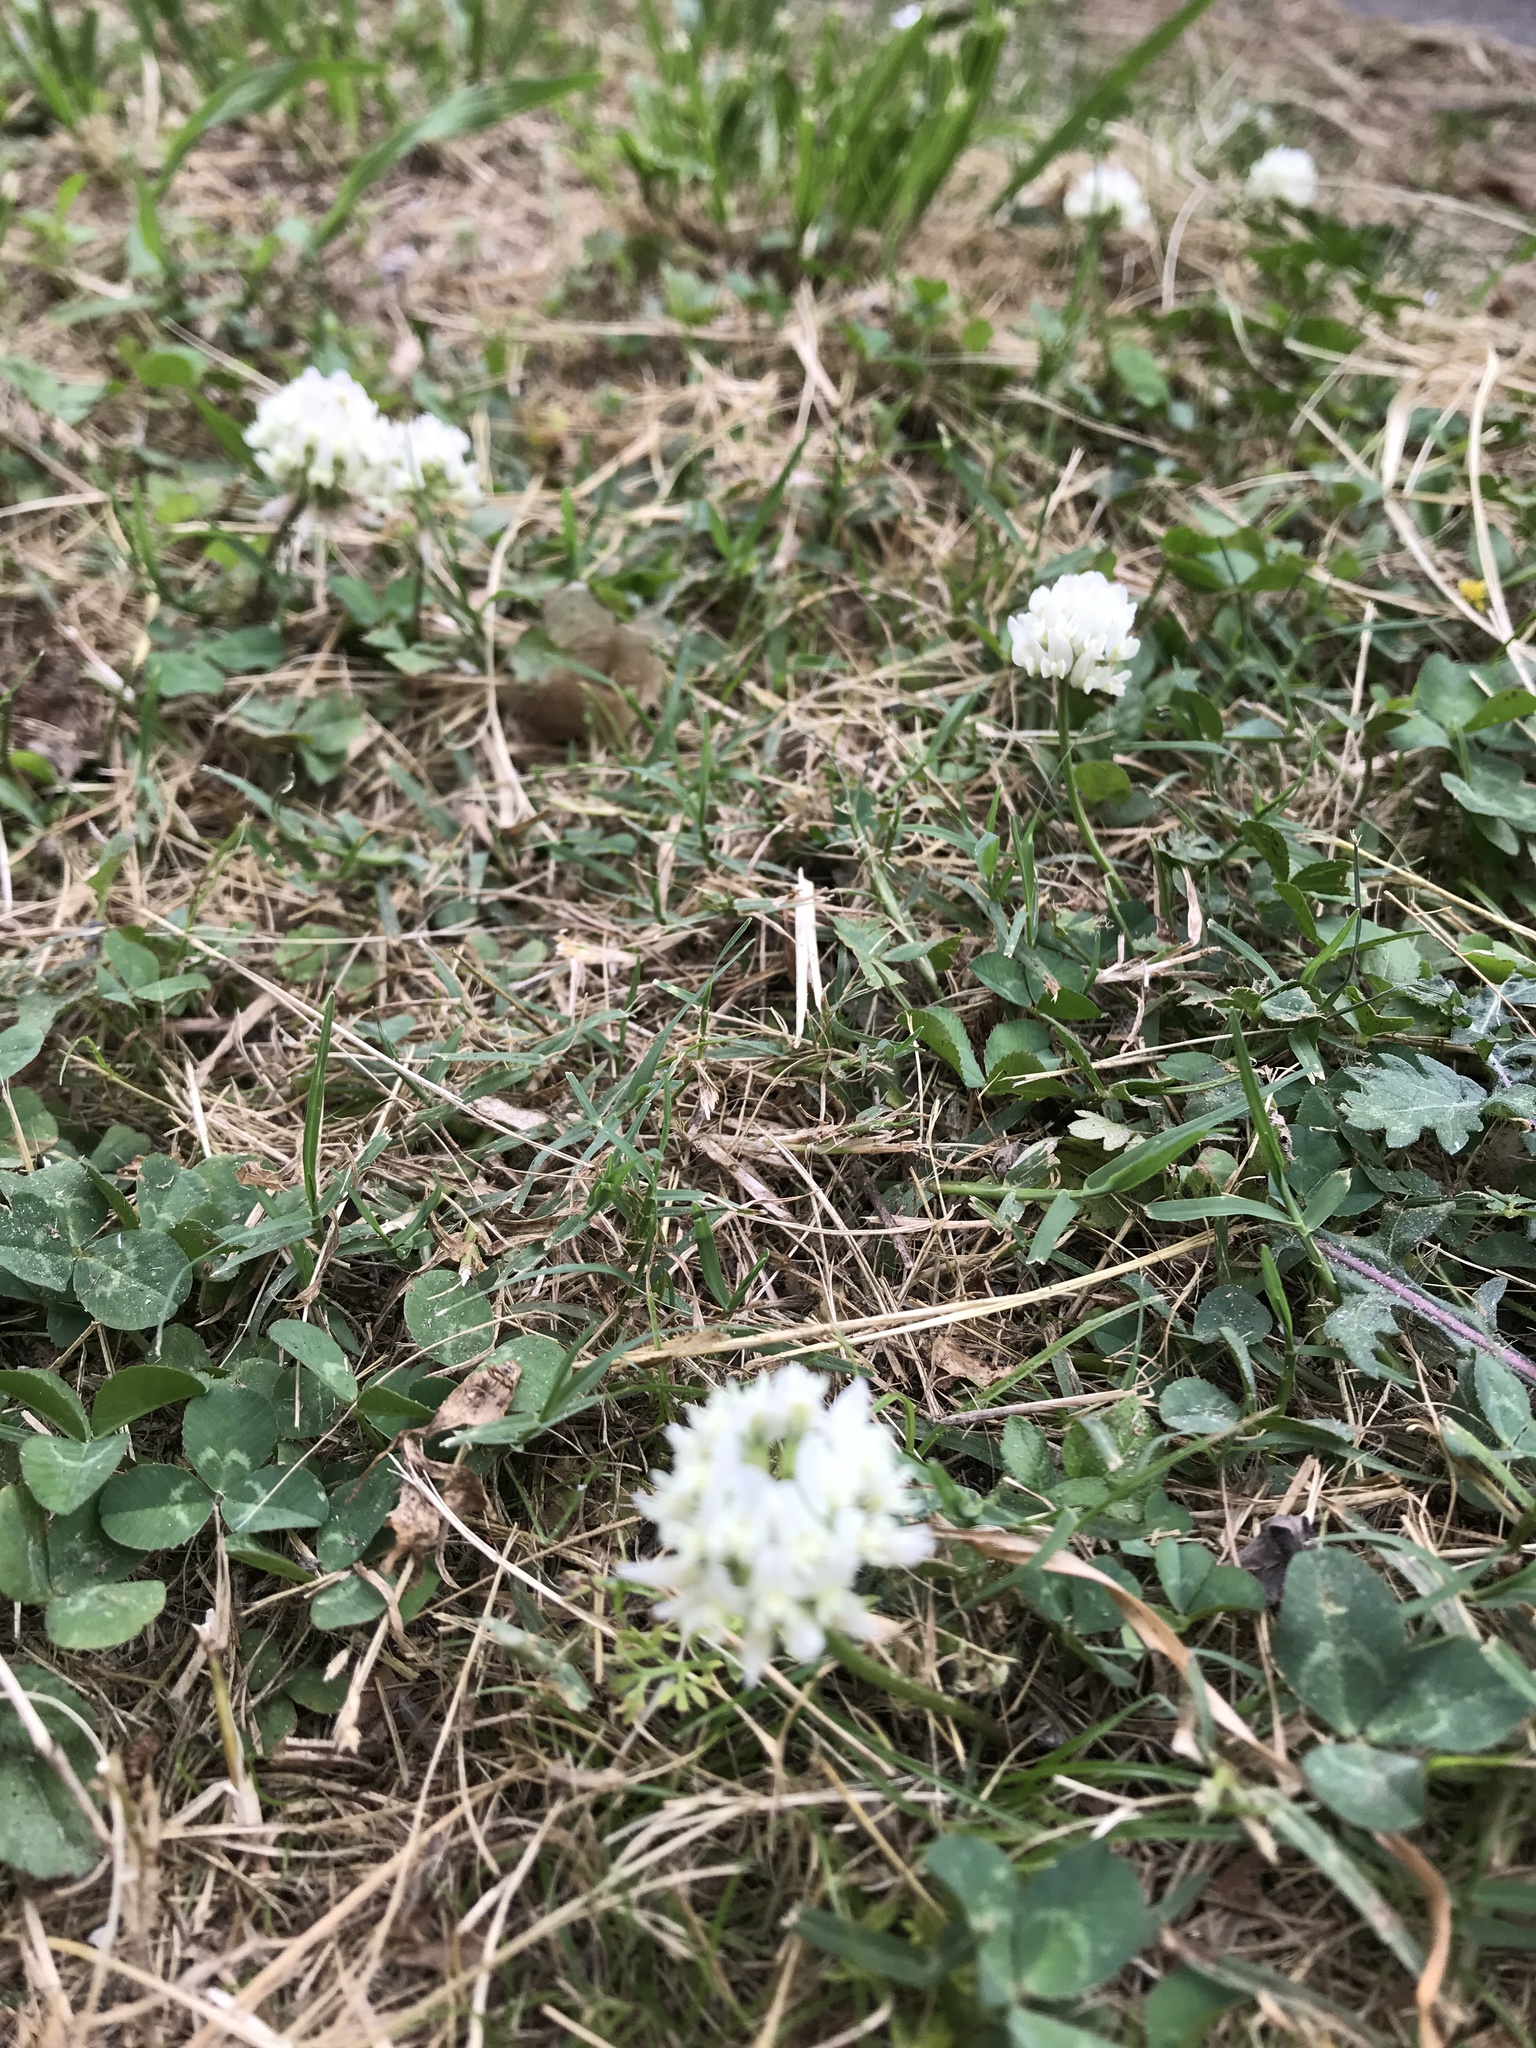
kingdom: Plantae
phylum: Tracheophyta
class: Magnoliopsida
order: Fabales
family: Fabaceae
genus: Trifolium
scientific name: Trifolium repens
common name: White clover
